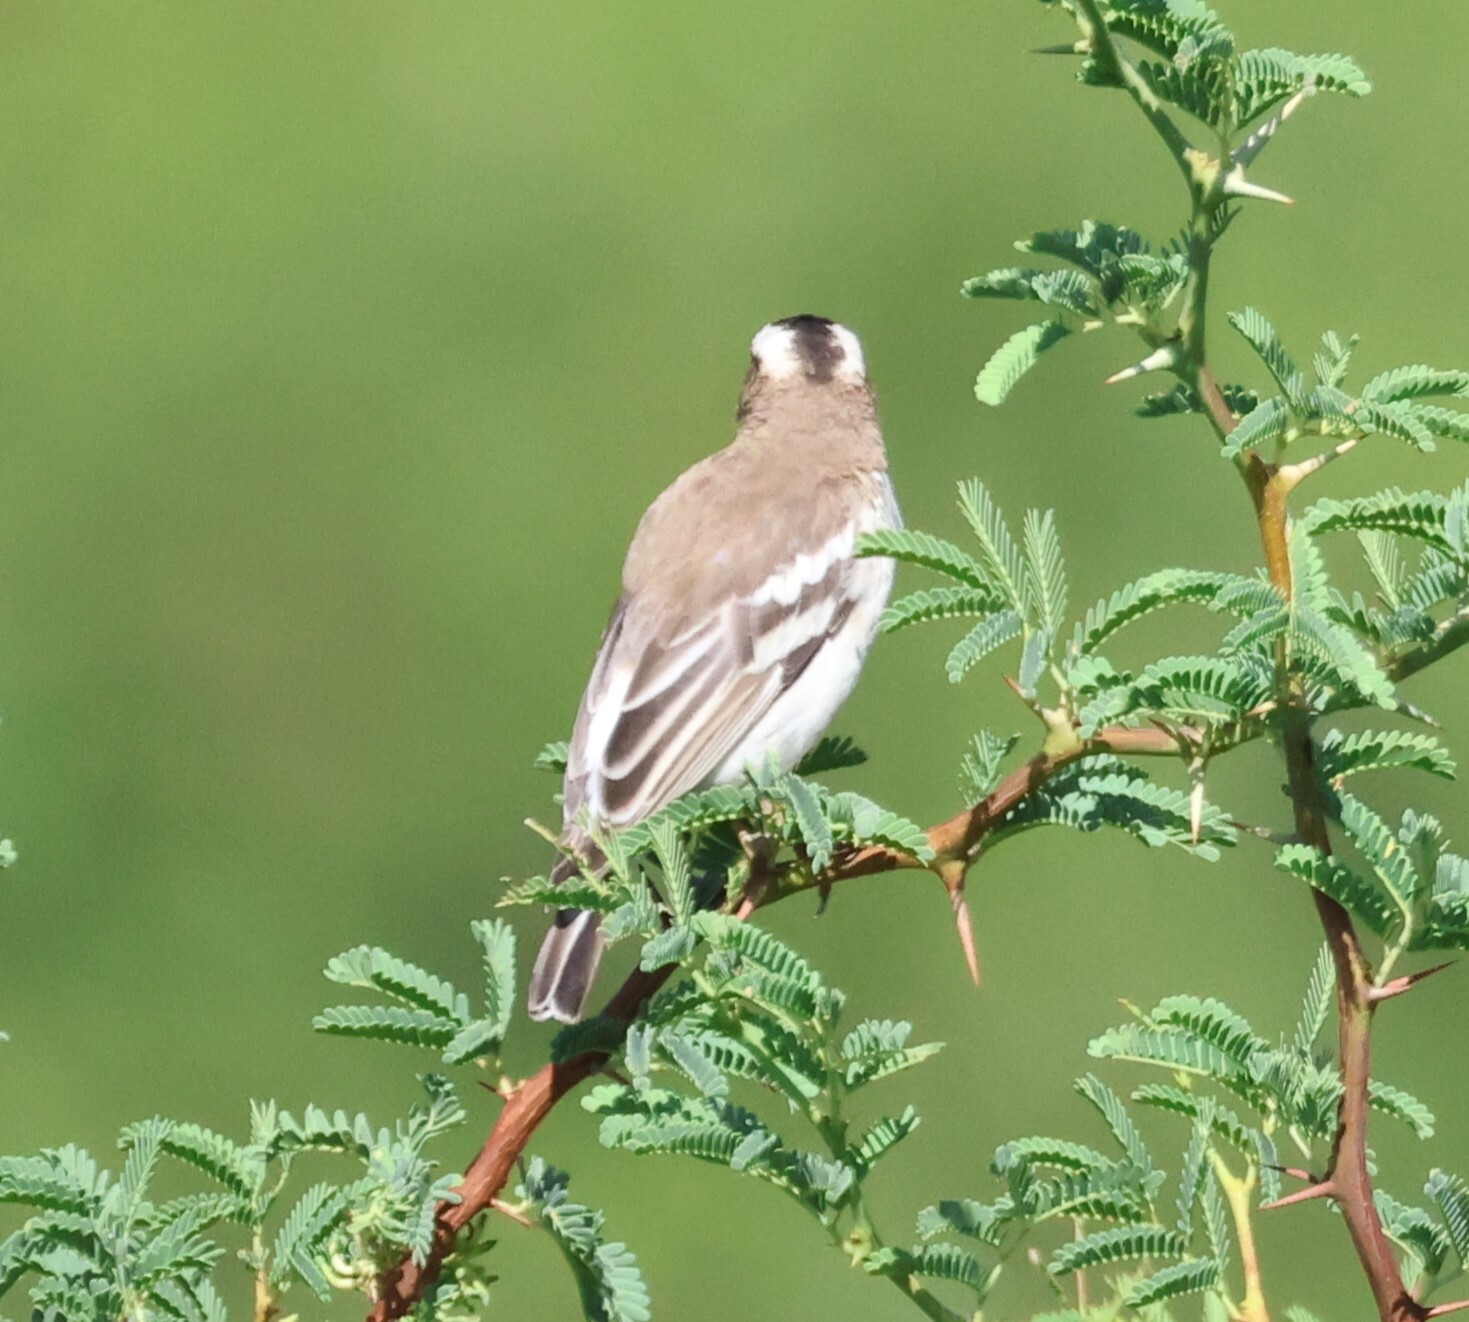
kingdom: Animalia
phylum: Chordata
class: Aves
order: Passeriformes
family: Passeridae
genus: Plocepasser
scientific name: Plocepasser mahali
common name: White-browed sparrow-weaver
